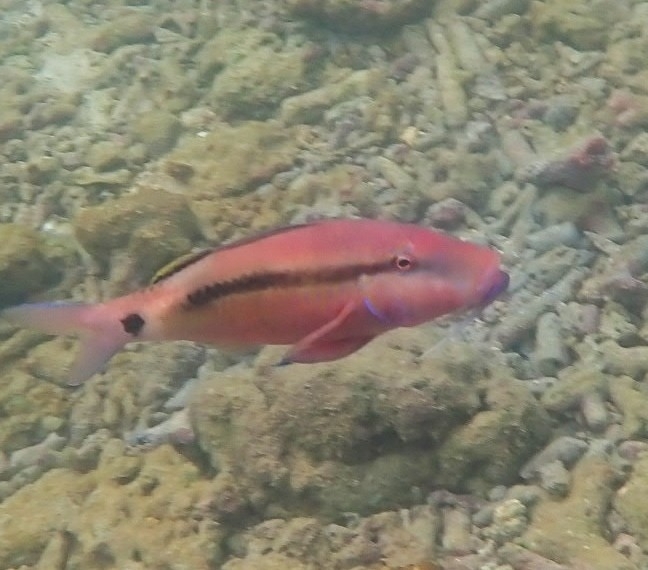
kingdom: Animalia
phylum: Chordata
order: Perciformes
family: Mullidae
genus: Parupeneus
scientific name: Parupeneus macronemus
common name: Long-barbel goatfish
